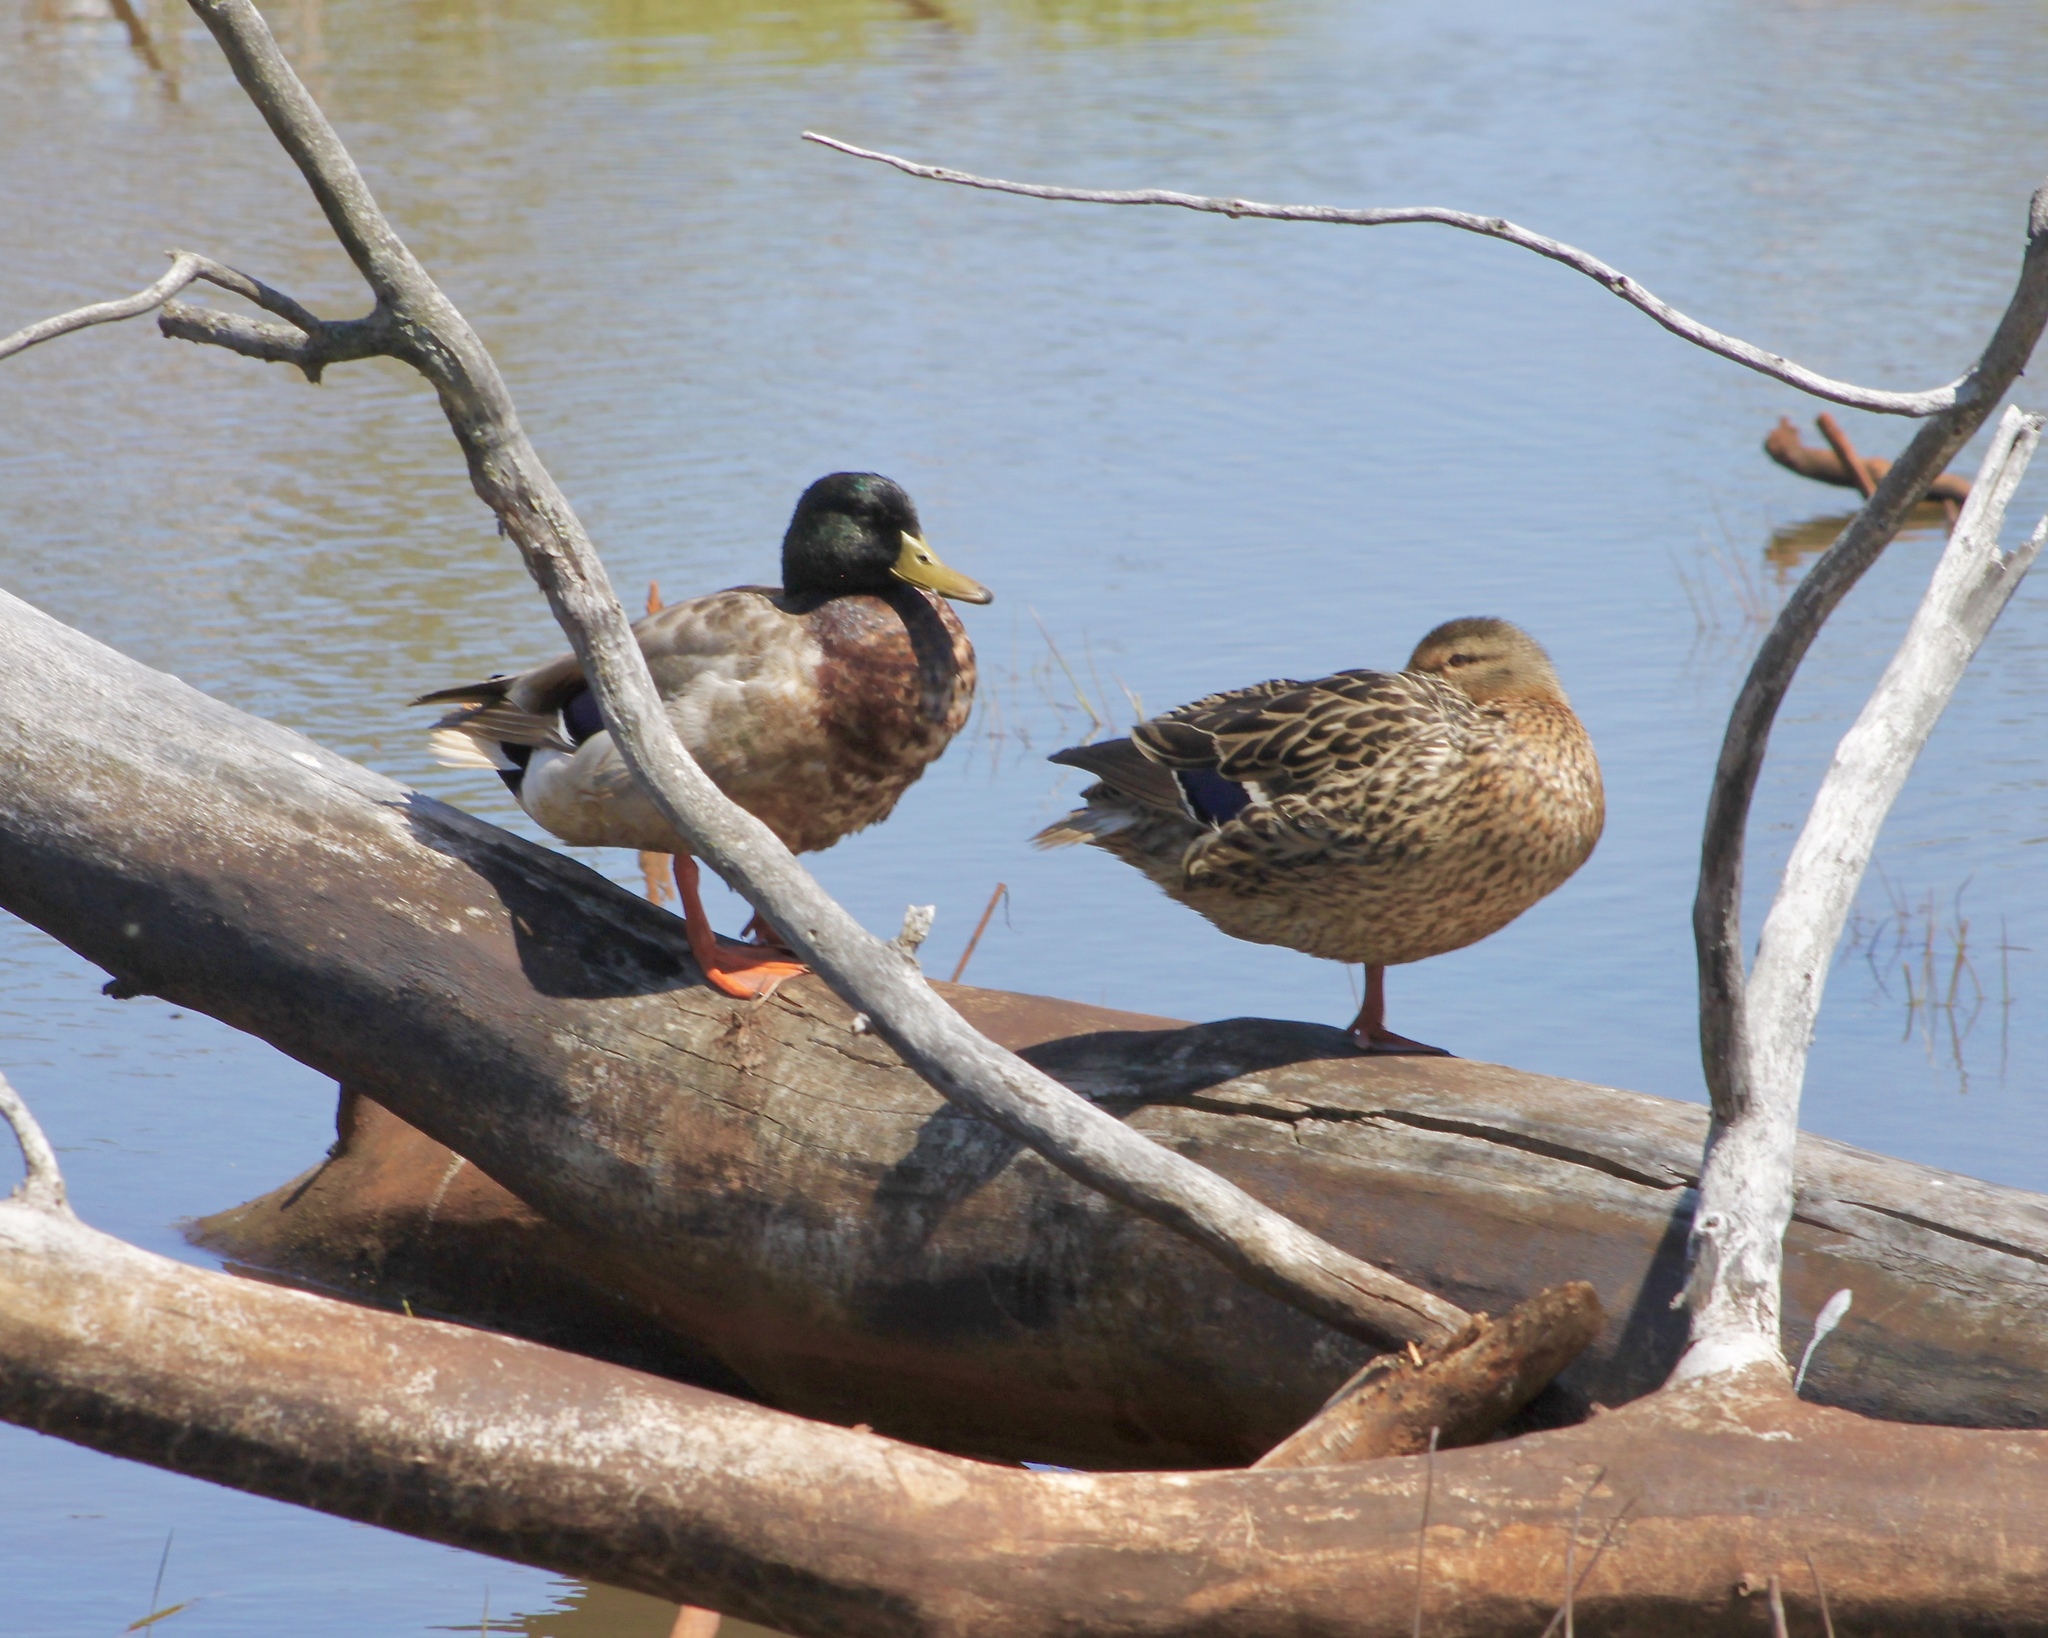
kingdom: Animalia
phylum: Chordata
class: Aves
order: Anseriformes
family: Anatidae
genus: Anas
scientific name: Anas platyrhynchos
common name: Mallard
